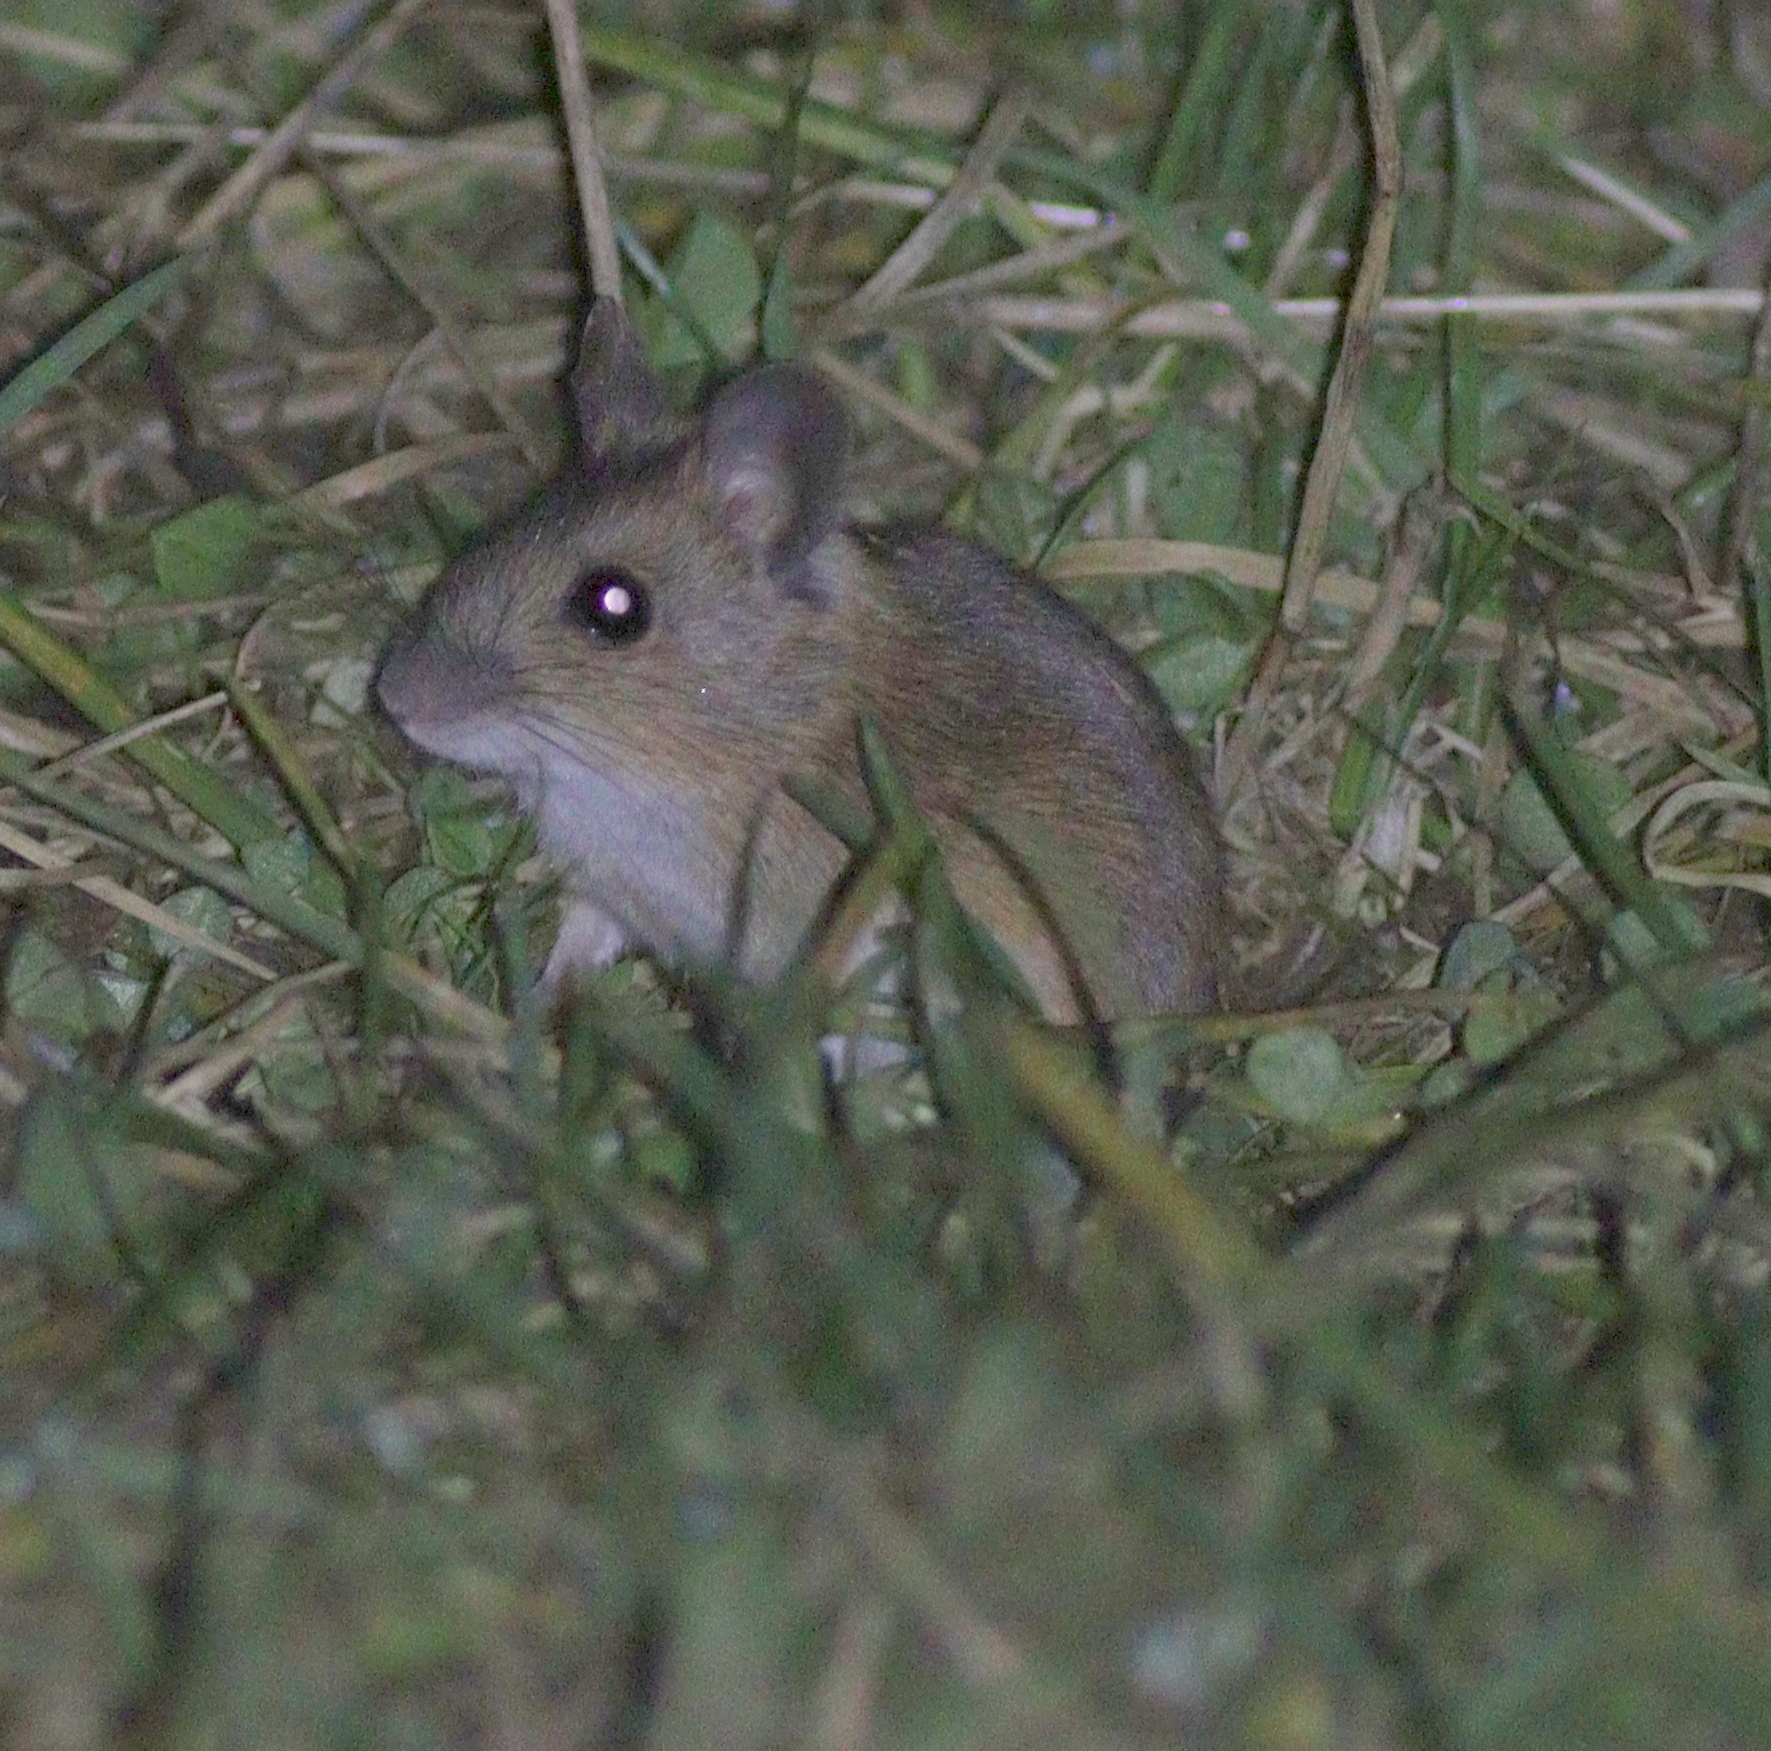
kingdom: Animalia
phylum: Chordata
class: Mammalia
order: Rodentia
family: Muridae
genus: Apodemus
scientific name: Apodemus sylvaticus
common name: Wood mouse
